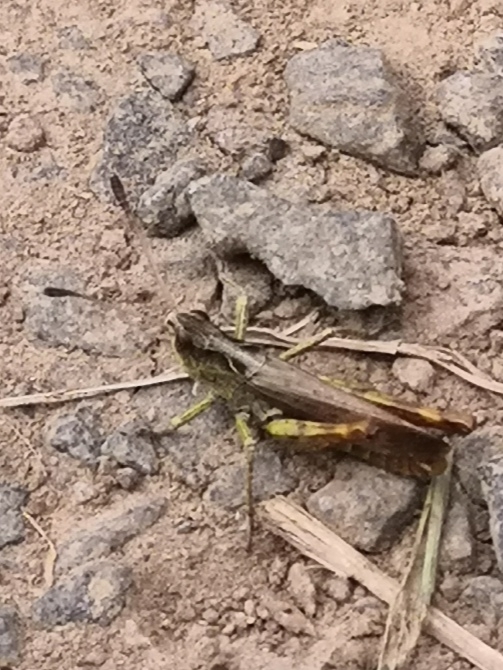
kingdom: Animalia
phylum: Arthropoda
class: Insecta
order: Orthoptera
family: Acrididae
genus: Gomphocerippus
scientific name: Gomphocerippus rufus
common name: Rufous grasshopper
